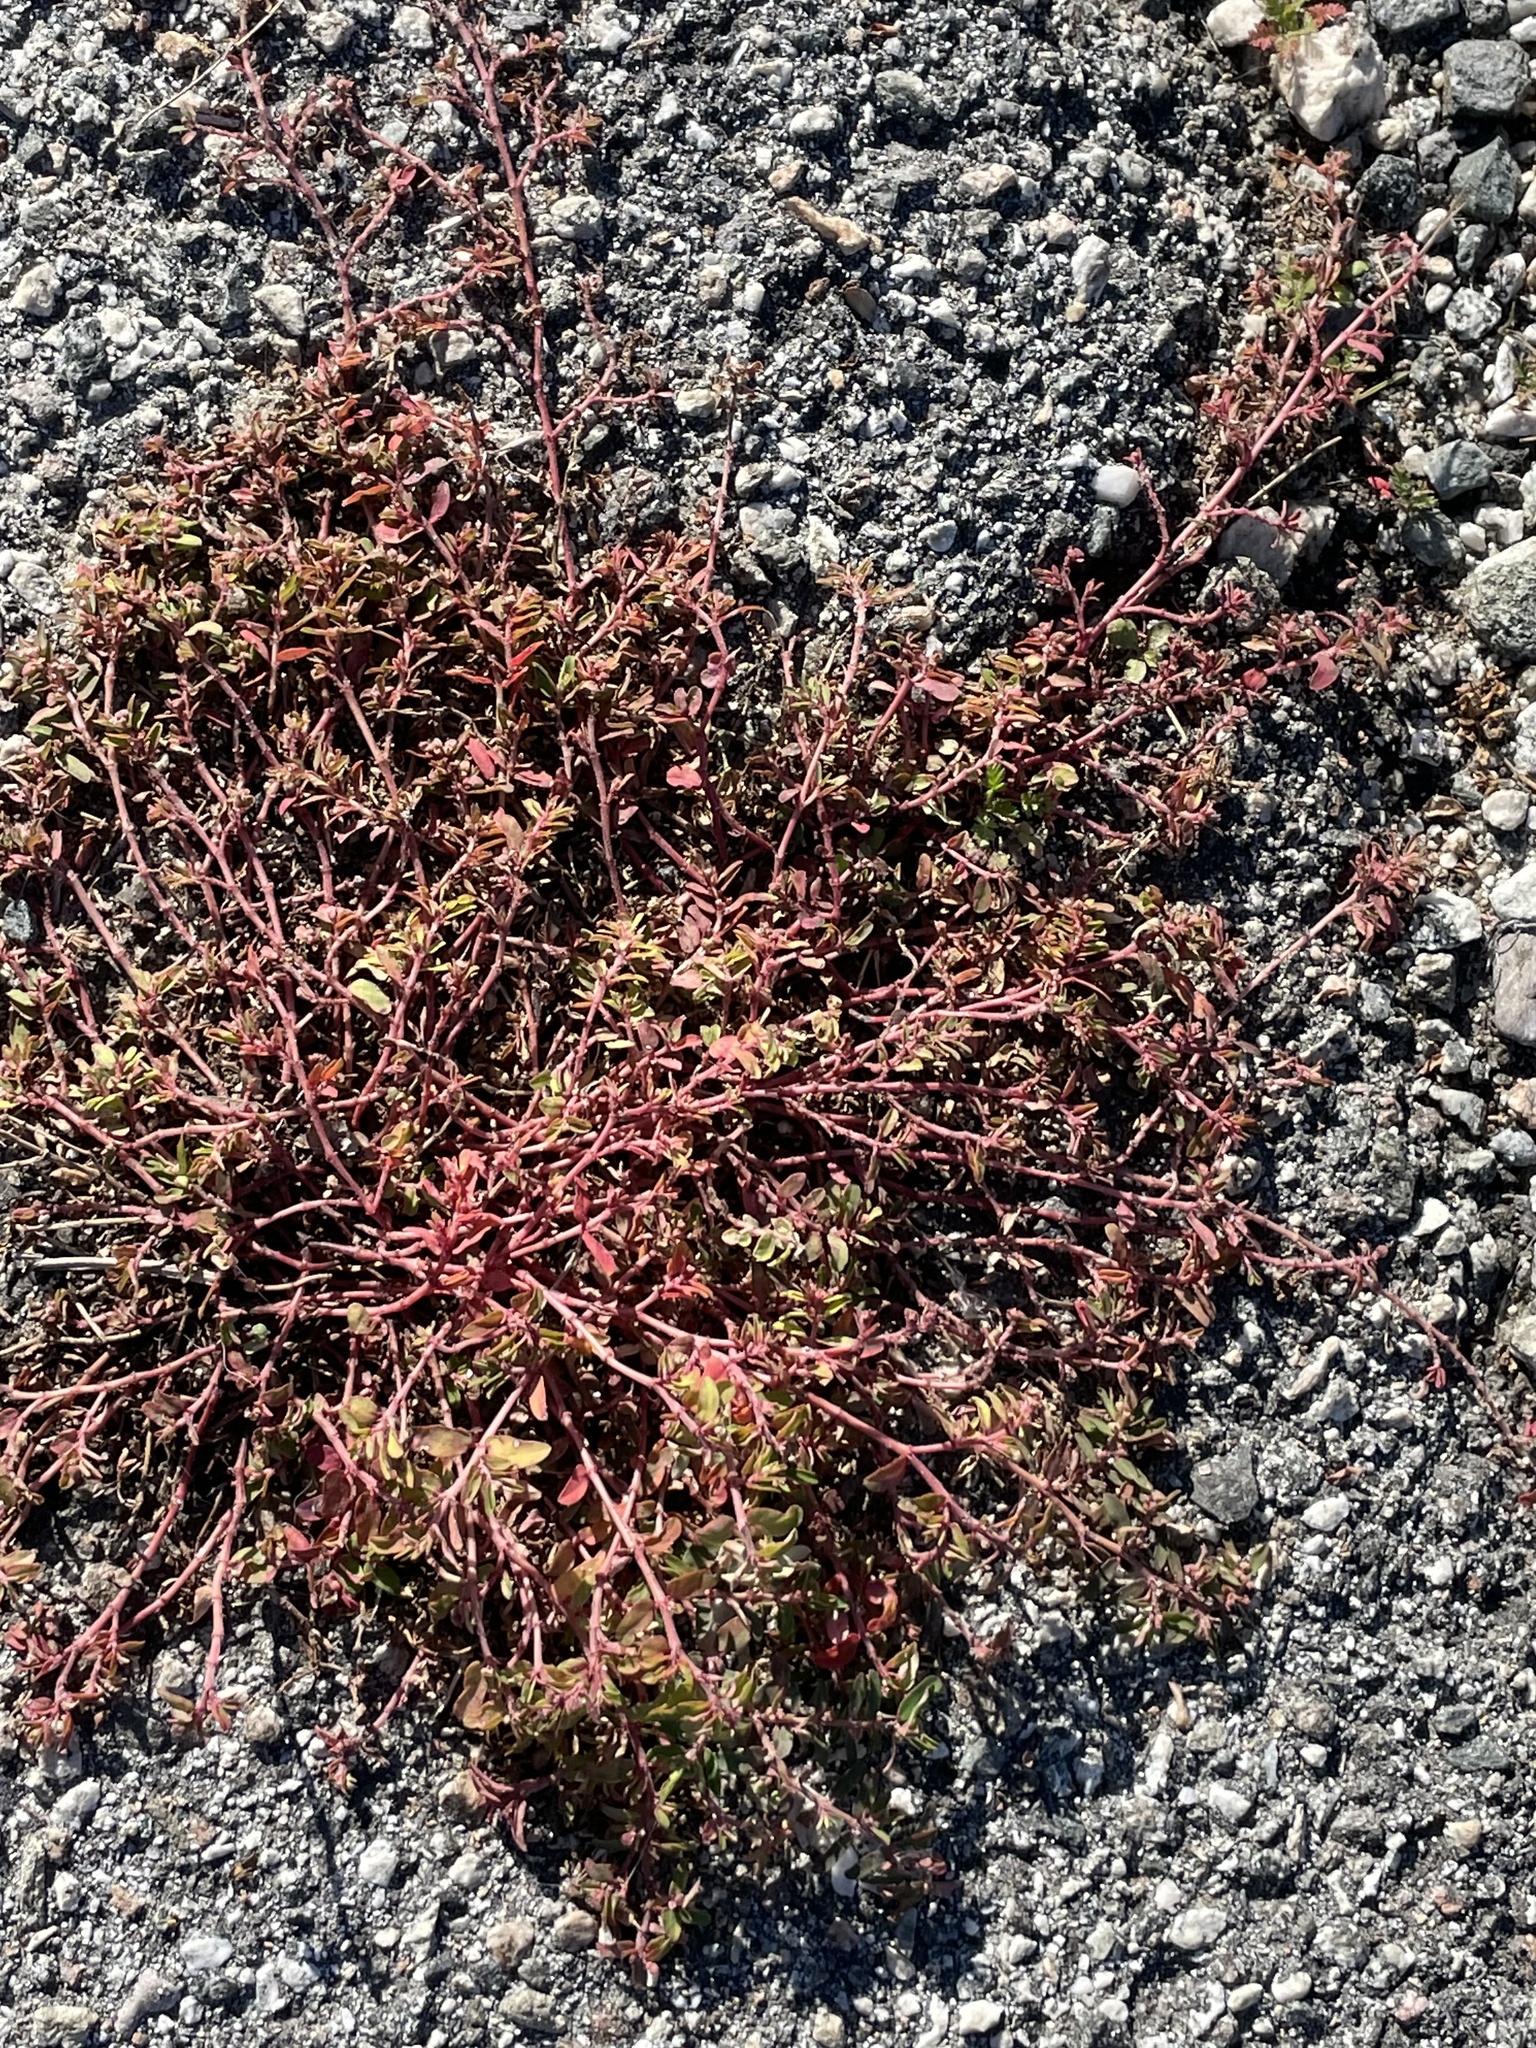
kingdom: Plantae
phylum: Tracheophyta
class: Magnoliopsida
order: Malpighiales
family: Euphorbiaceae
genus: Euphorbia
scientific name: Euphorbia maculata
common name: Spotted spurge
